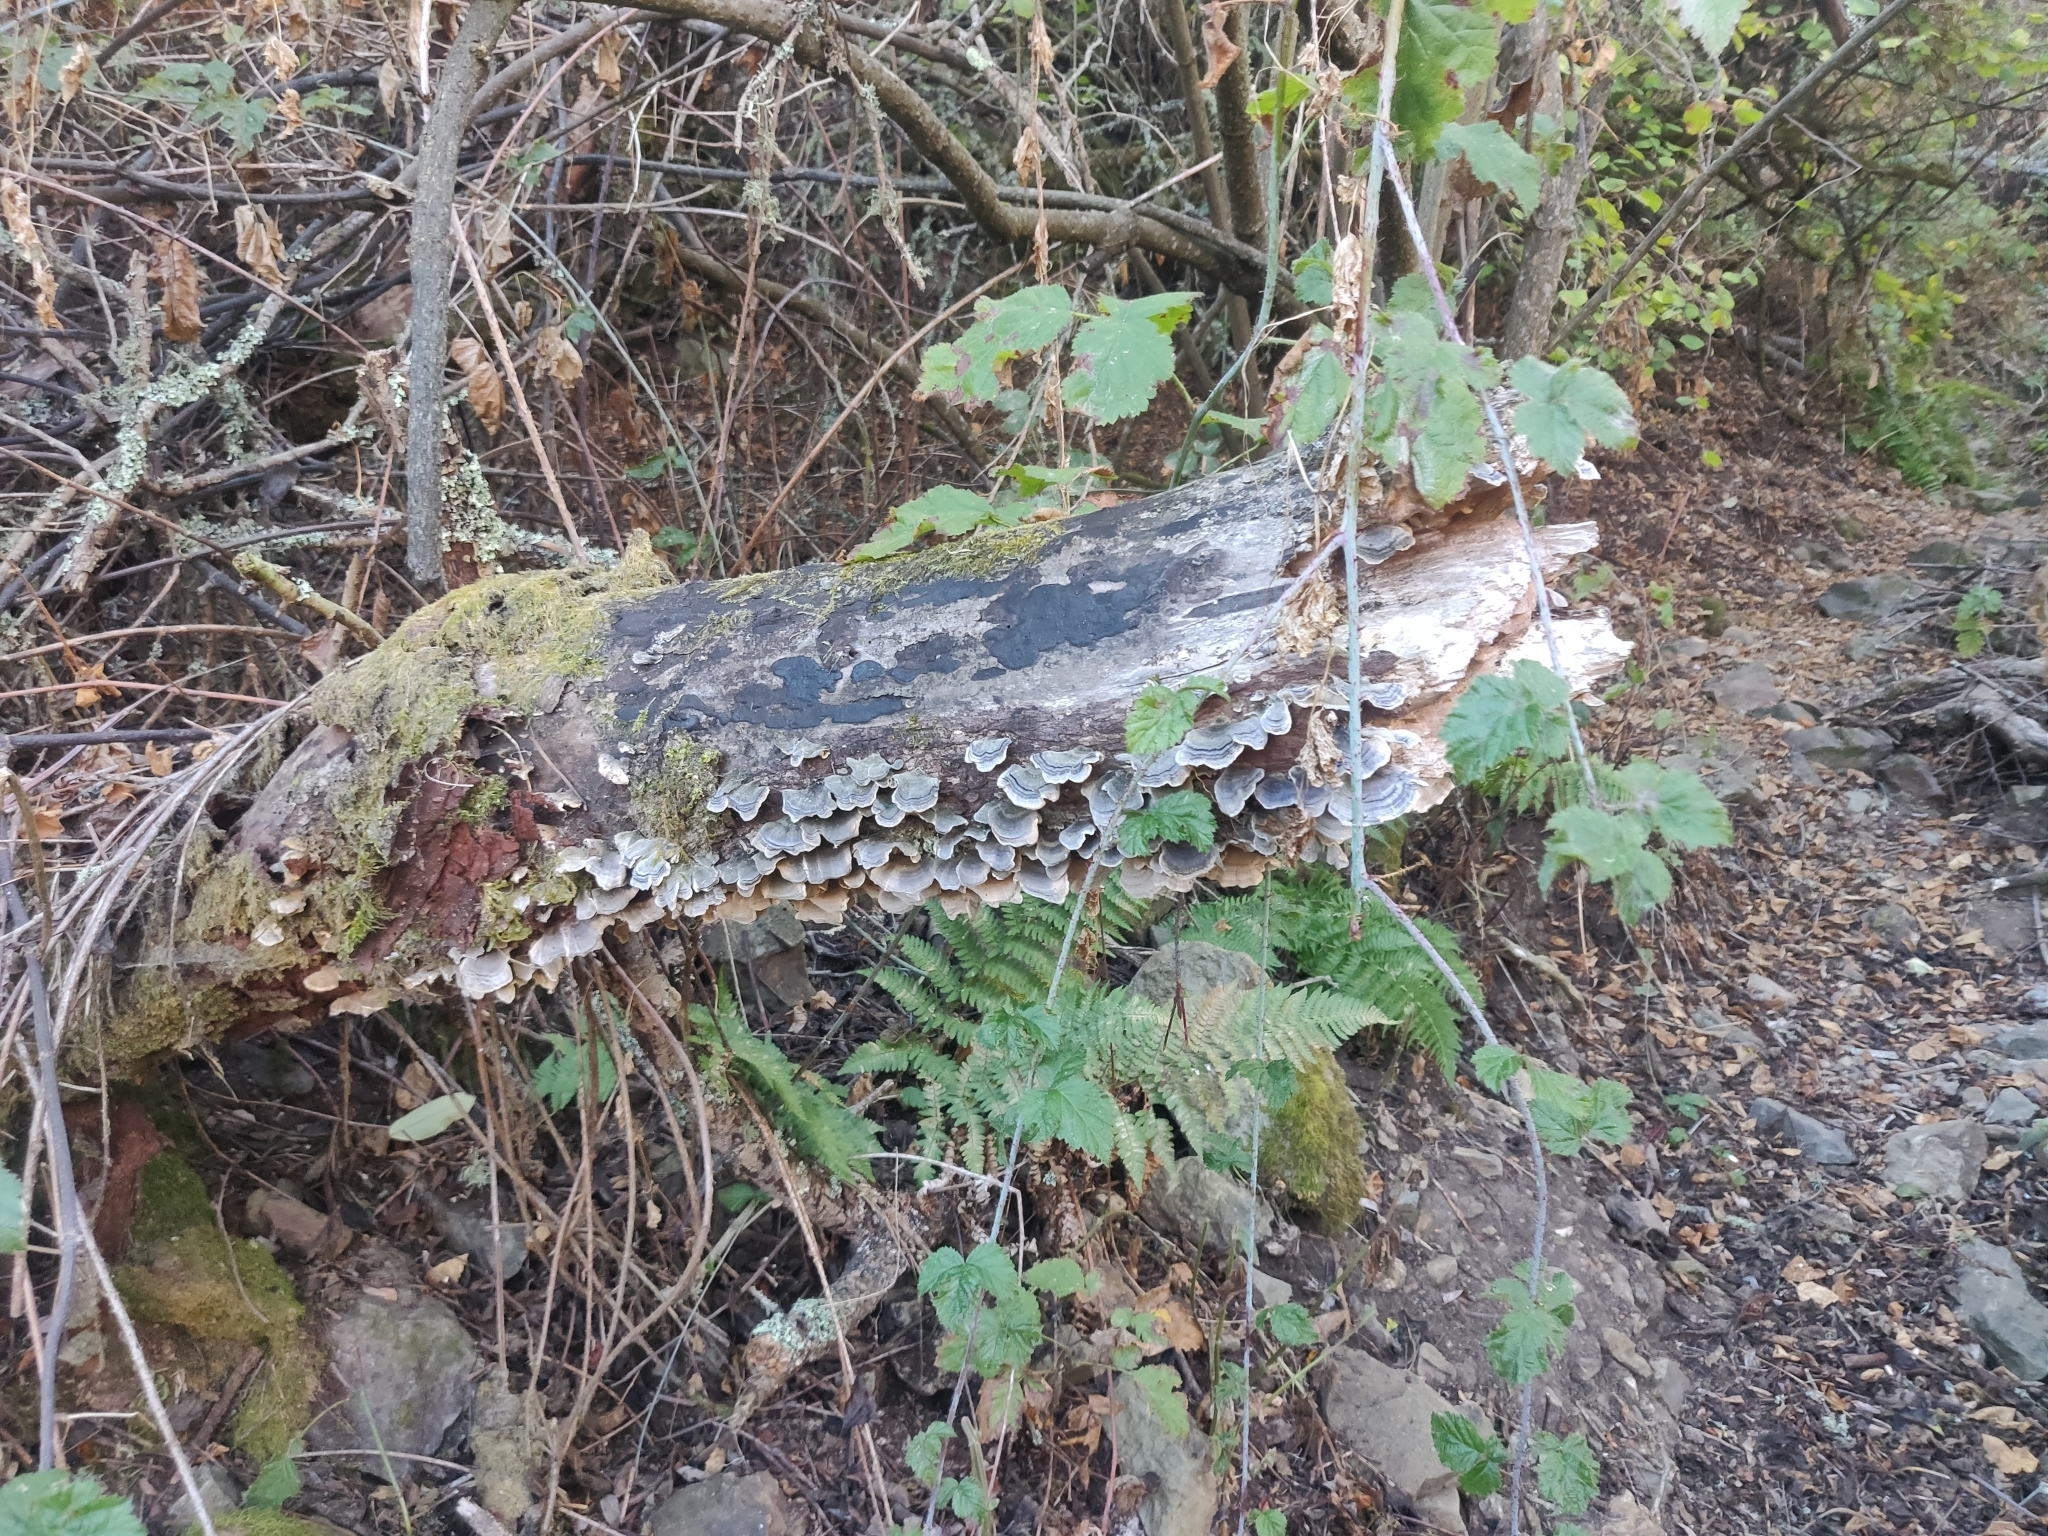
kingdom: Fungi
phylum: Basidiomycota
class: Agaricomycetes
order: Polyporales
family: Polyporaceae
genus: Trametes
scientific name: Trametes versicolor
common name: Turkeytail
